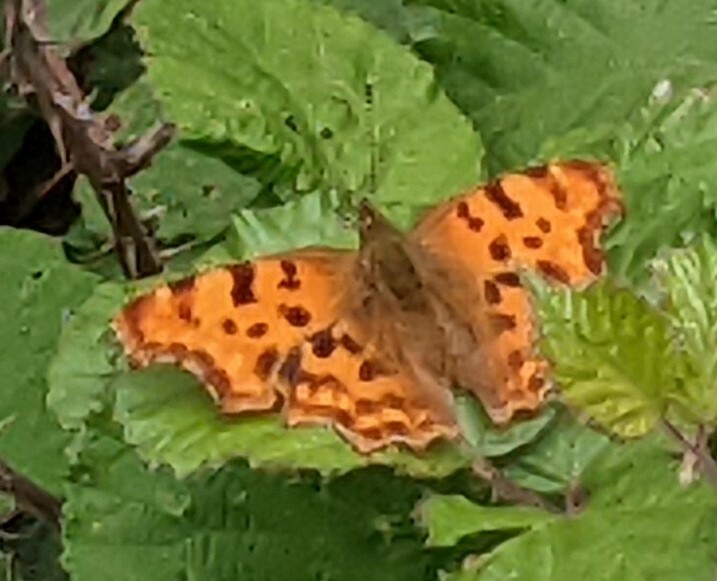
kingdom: Animalia
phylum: Arthropoda
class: Insecta
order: Lepidoptera
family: Nymphalidae
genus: Polygonia
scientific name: Polygonia c-album
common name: Comma
